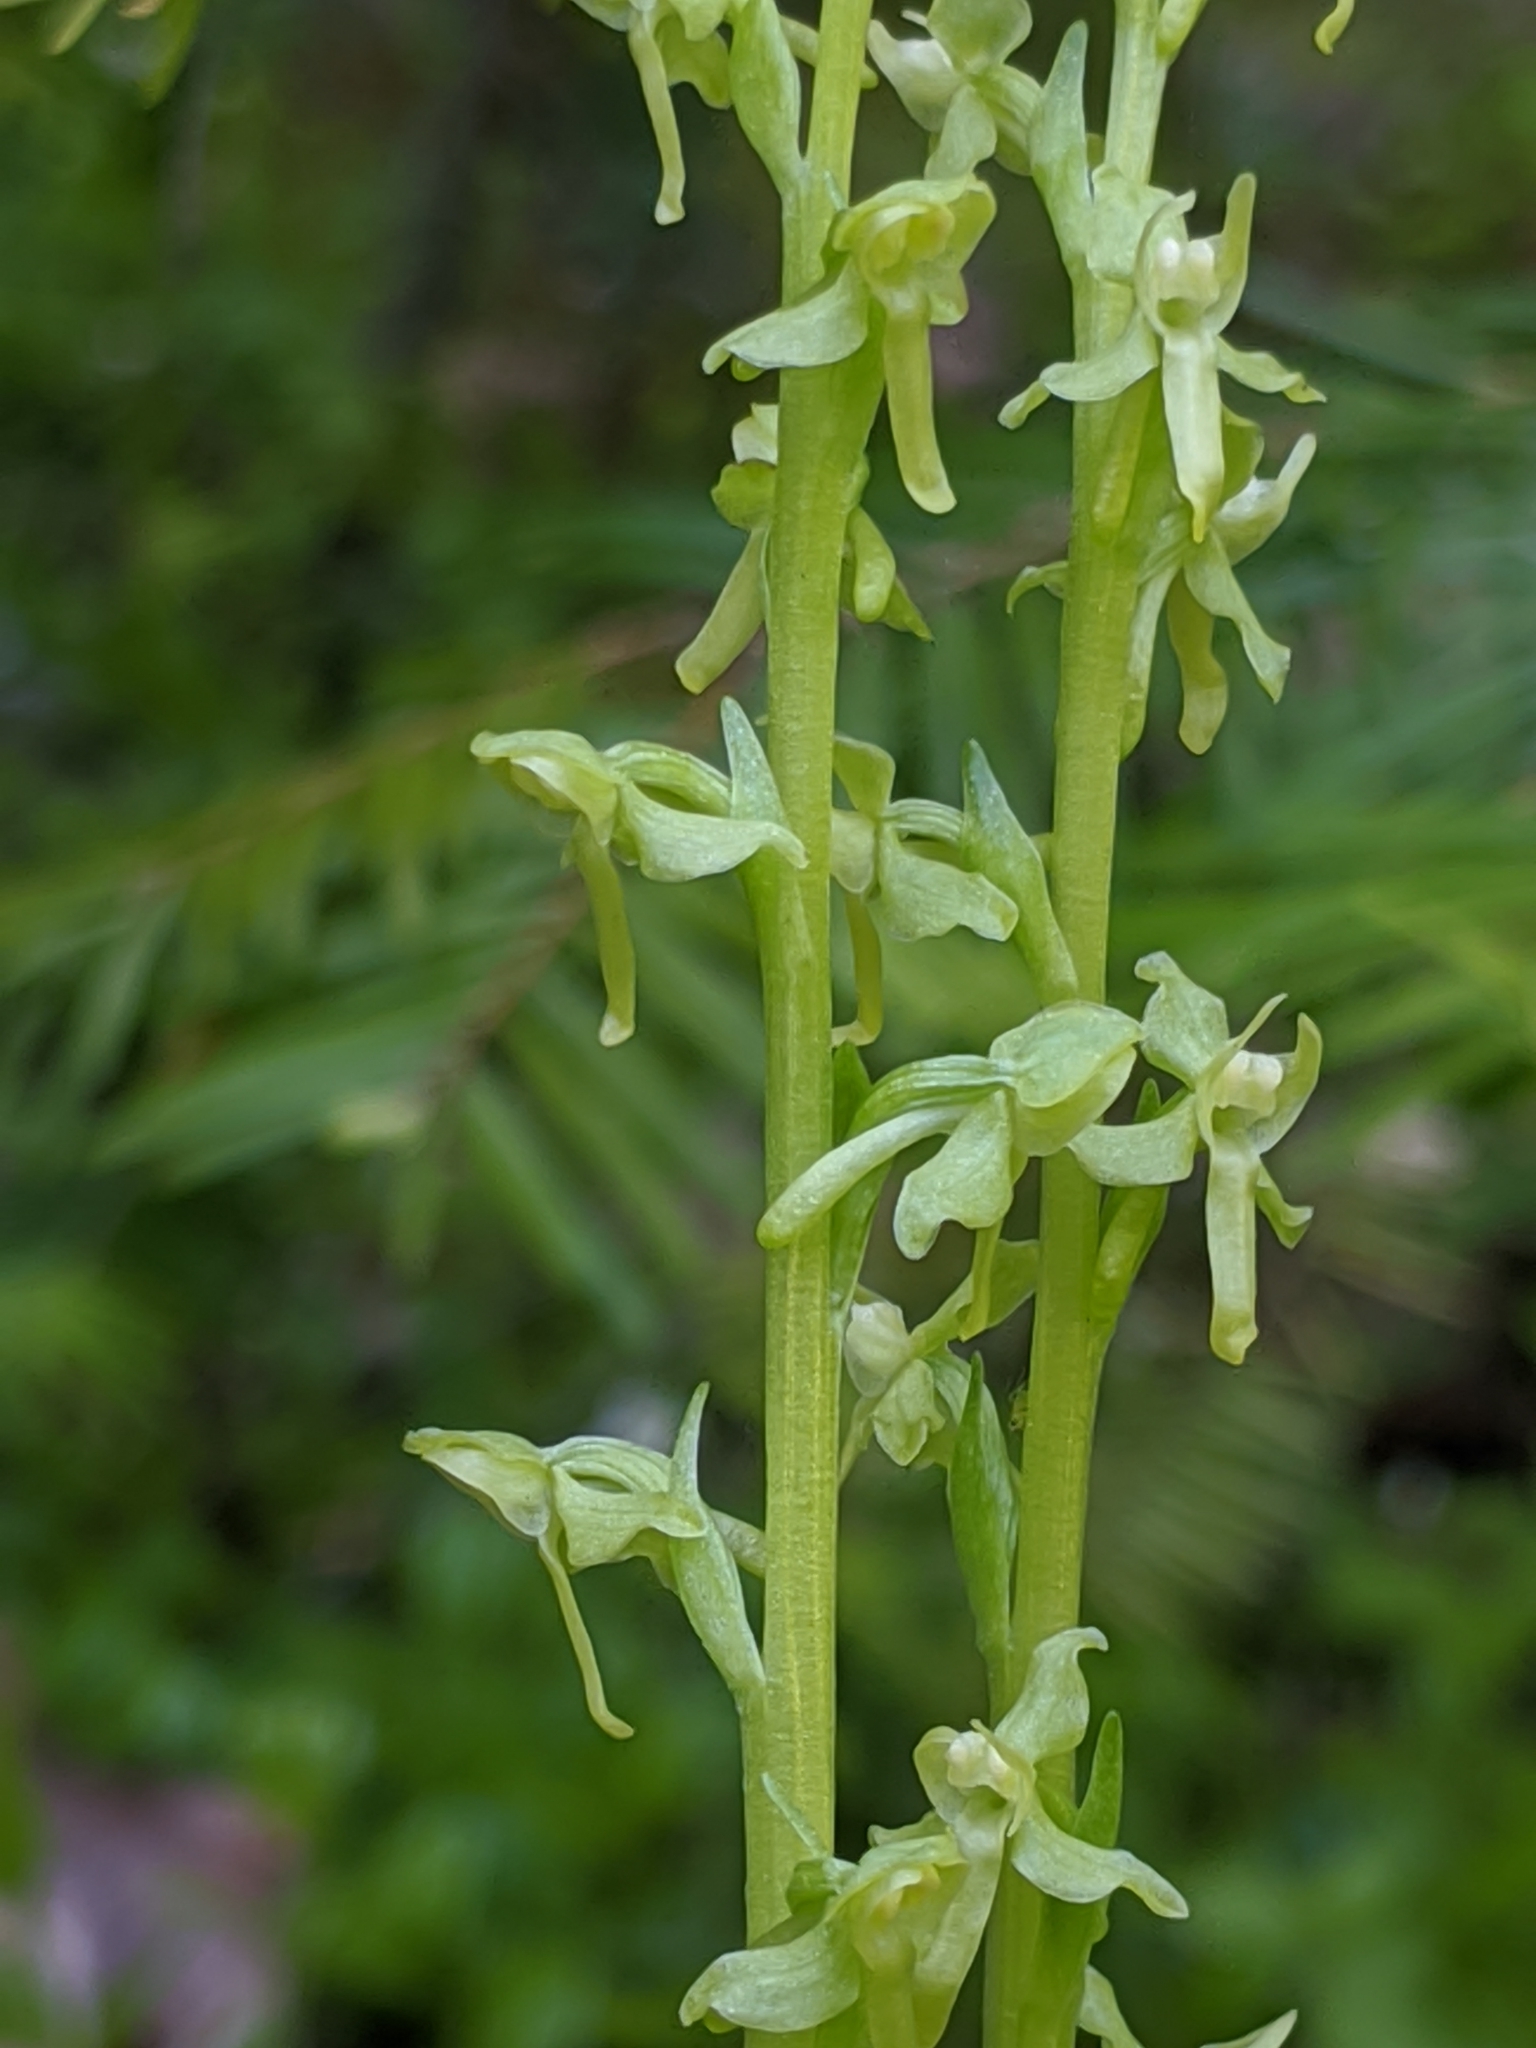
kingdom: Plantae
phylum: Tracheophyta
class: Liliopsida
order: Asparagales
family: Orchidaceae
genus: Platanthera
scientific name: Platanthera stricta
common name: Slender bog orchid
